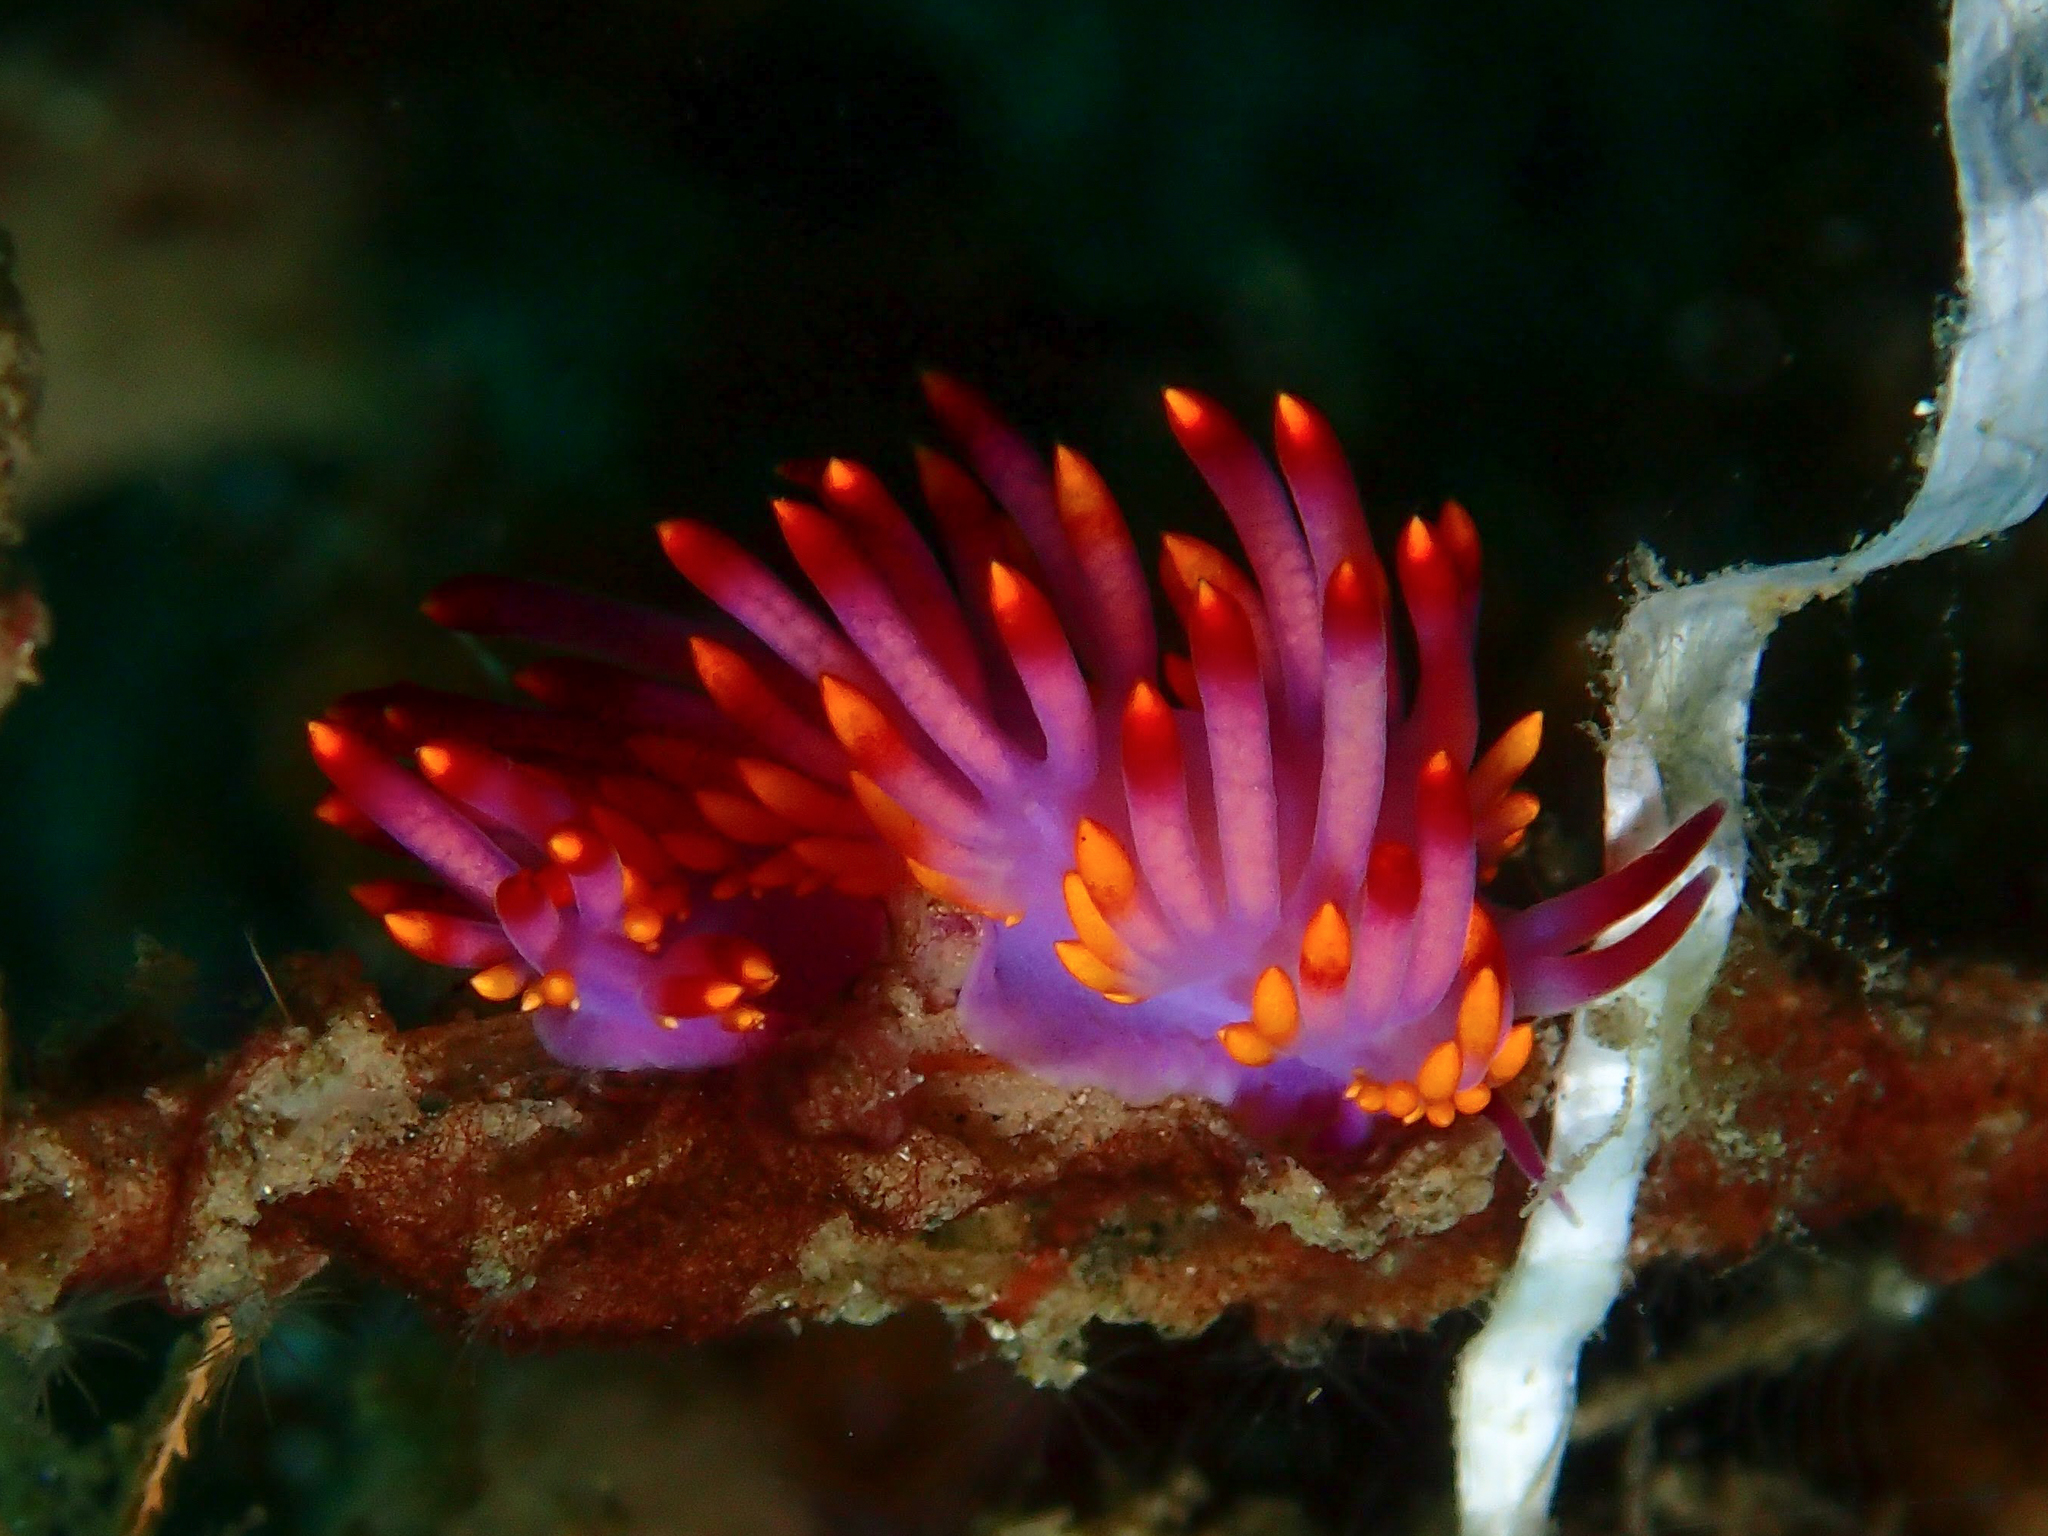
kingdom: Animalia
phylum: Mollusca
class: Gastropoda
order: Nudibranchia
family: Trinchesiidae
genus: Trinchesia
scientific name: Trinchesia sibogae
